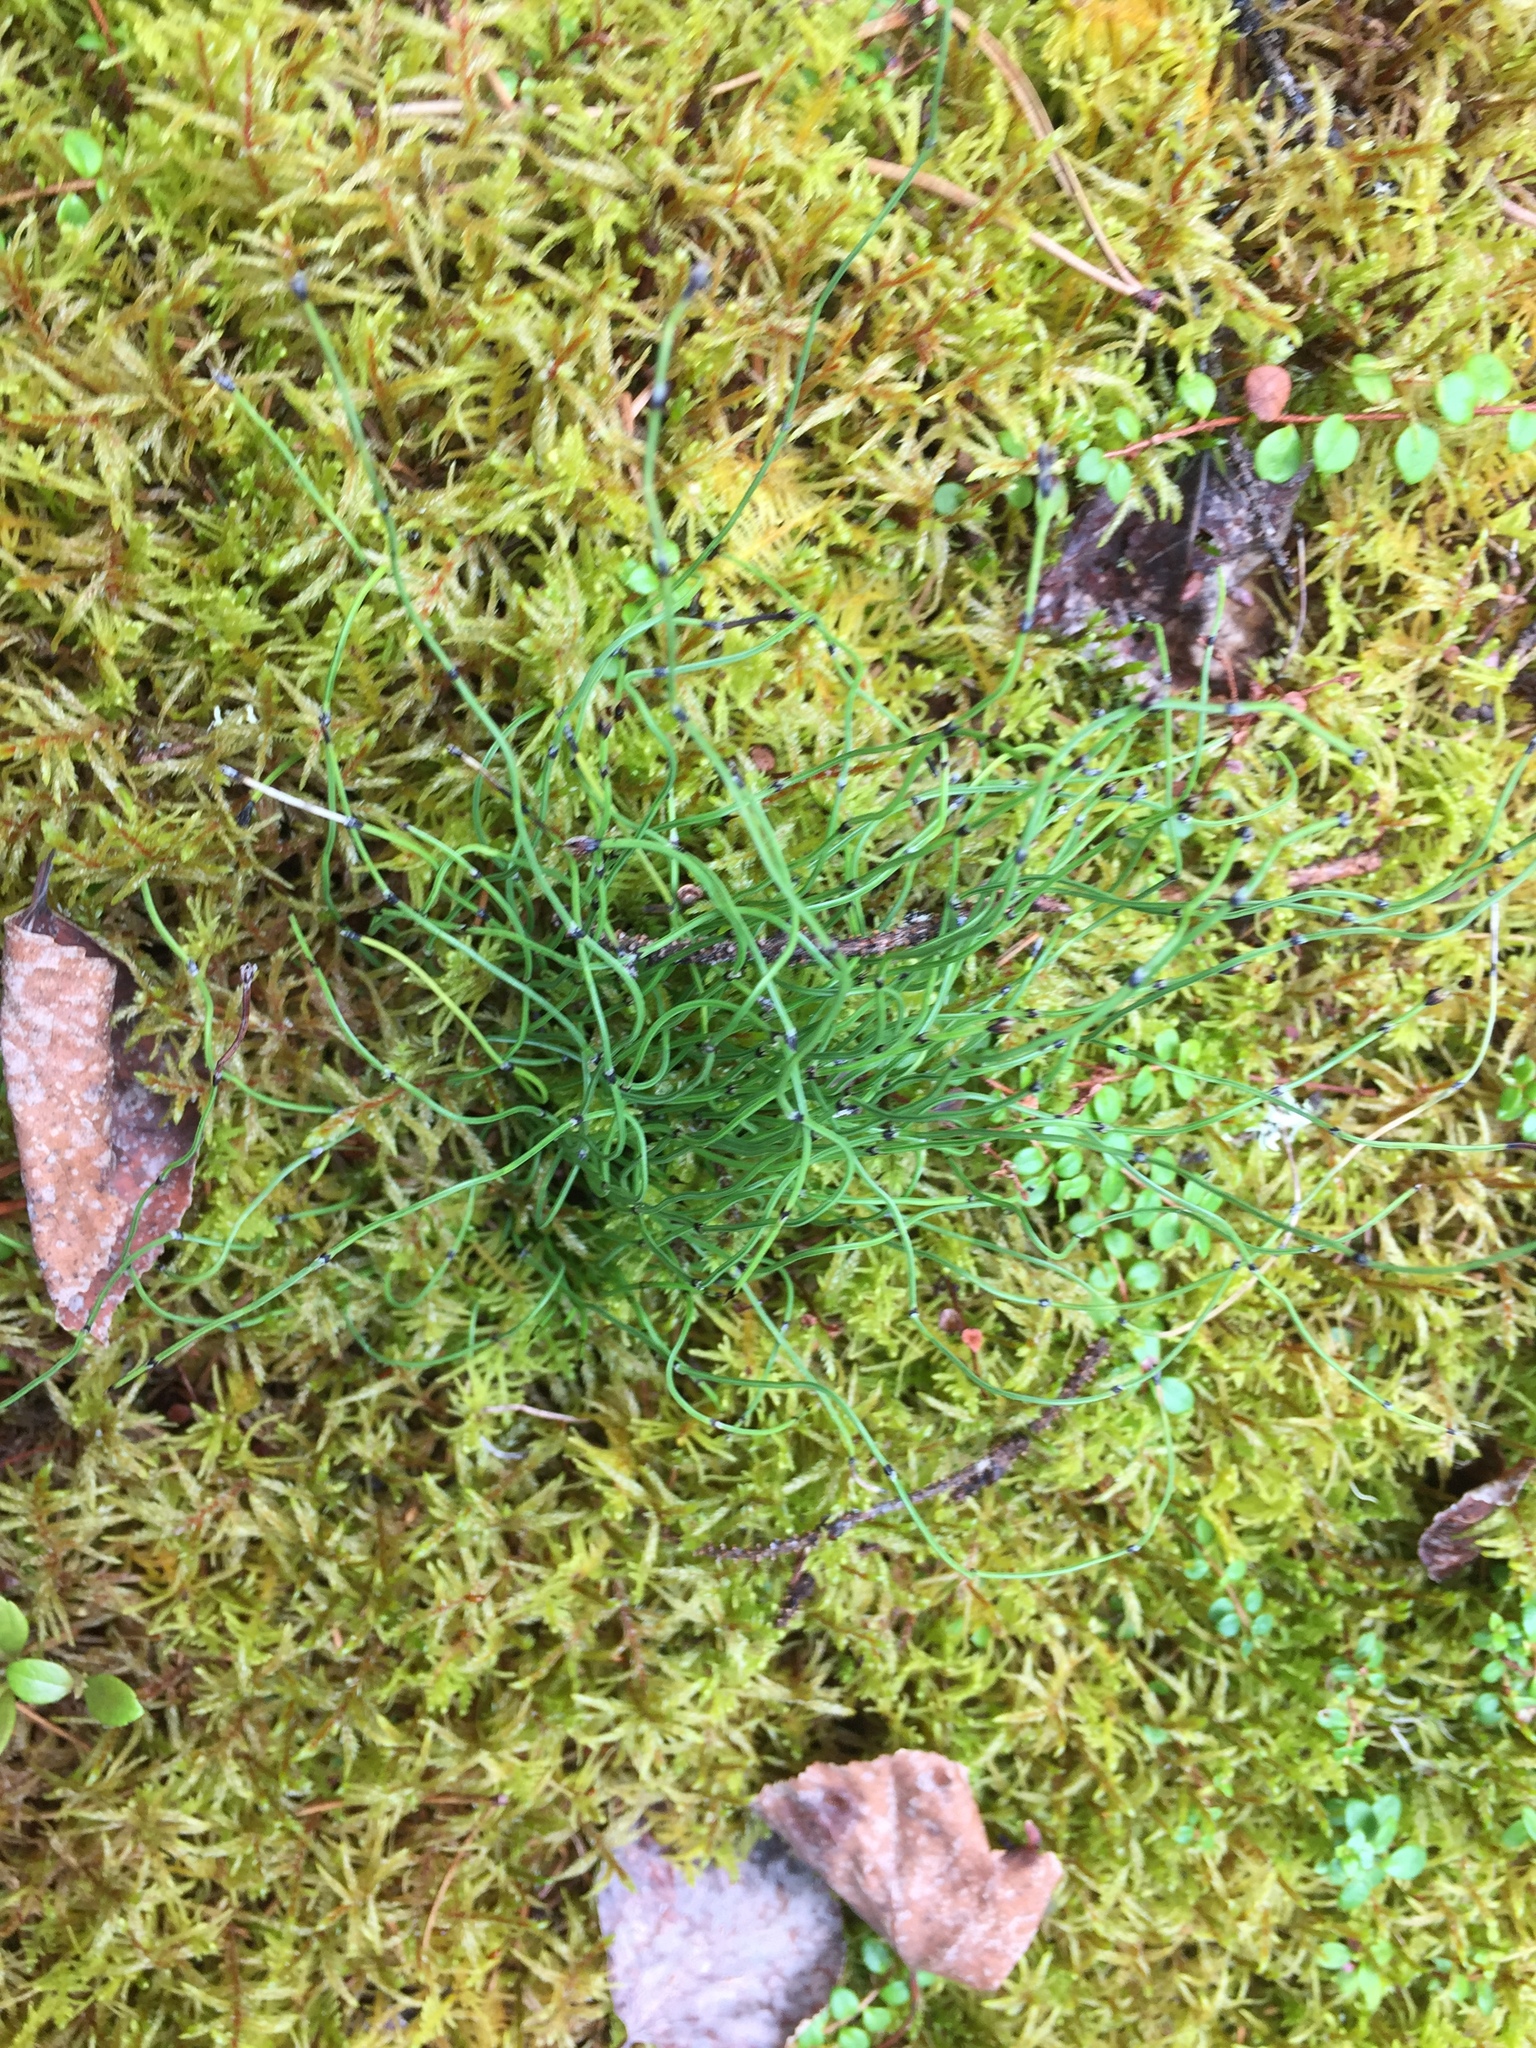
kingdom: Plantae
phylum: Tracheophyta
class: Polypodiopsida
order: Equisetales
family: Equisetaceae
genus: Equisetum
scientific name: Equisetum scirpoides
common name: Delicate horsetail
